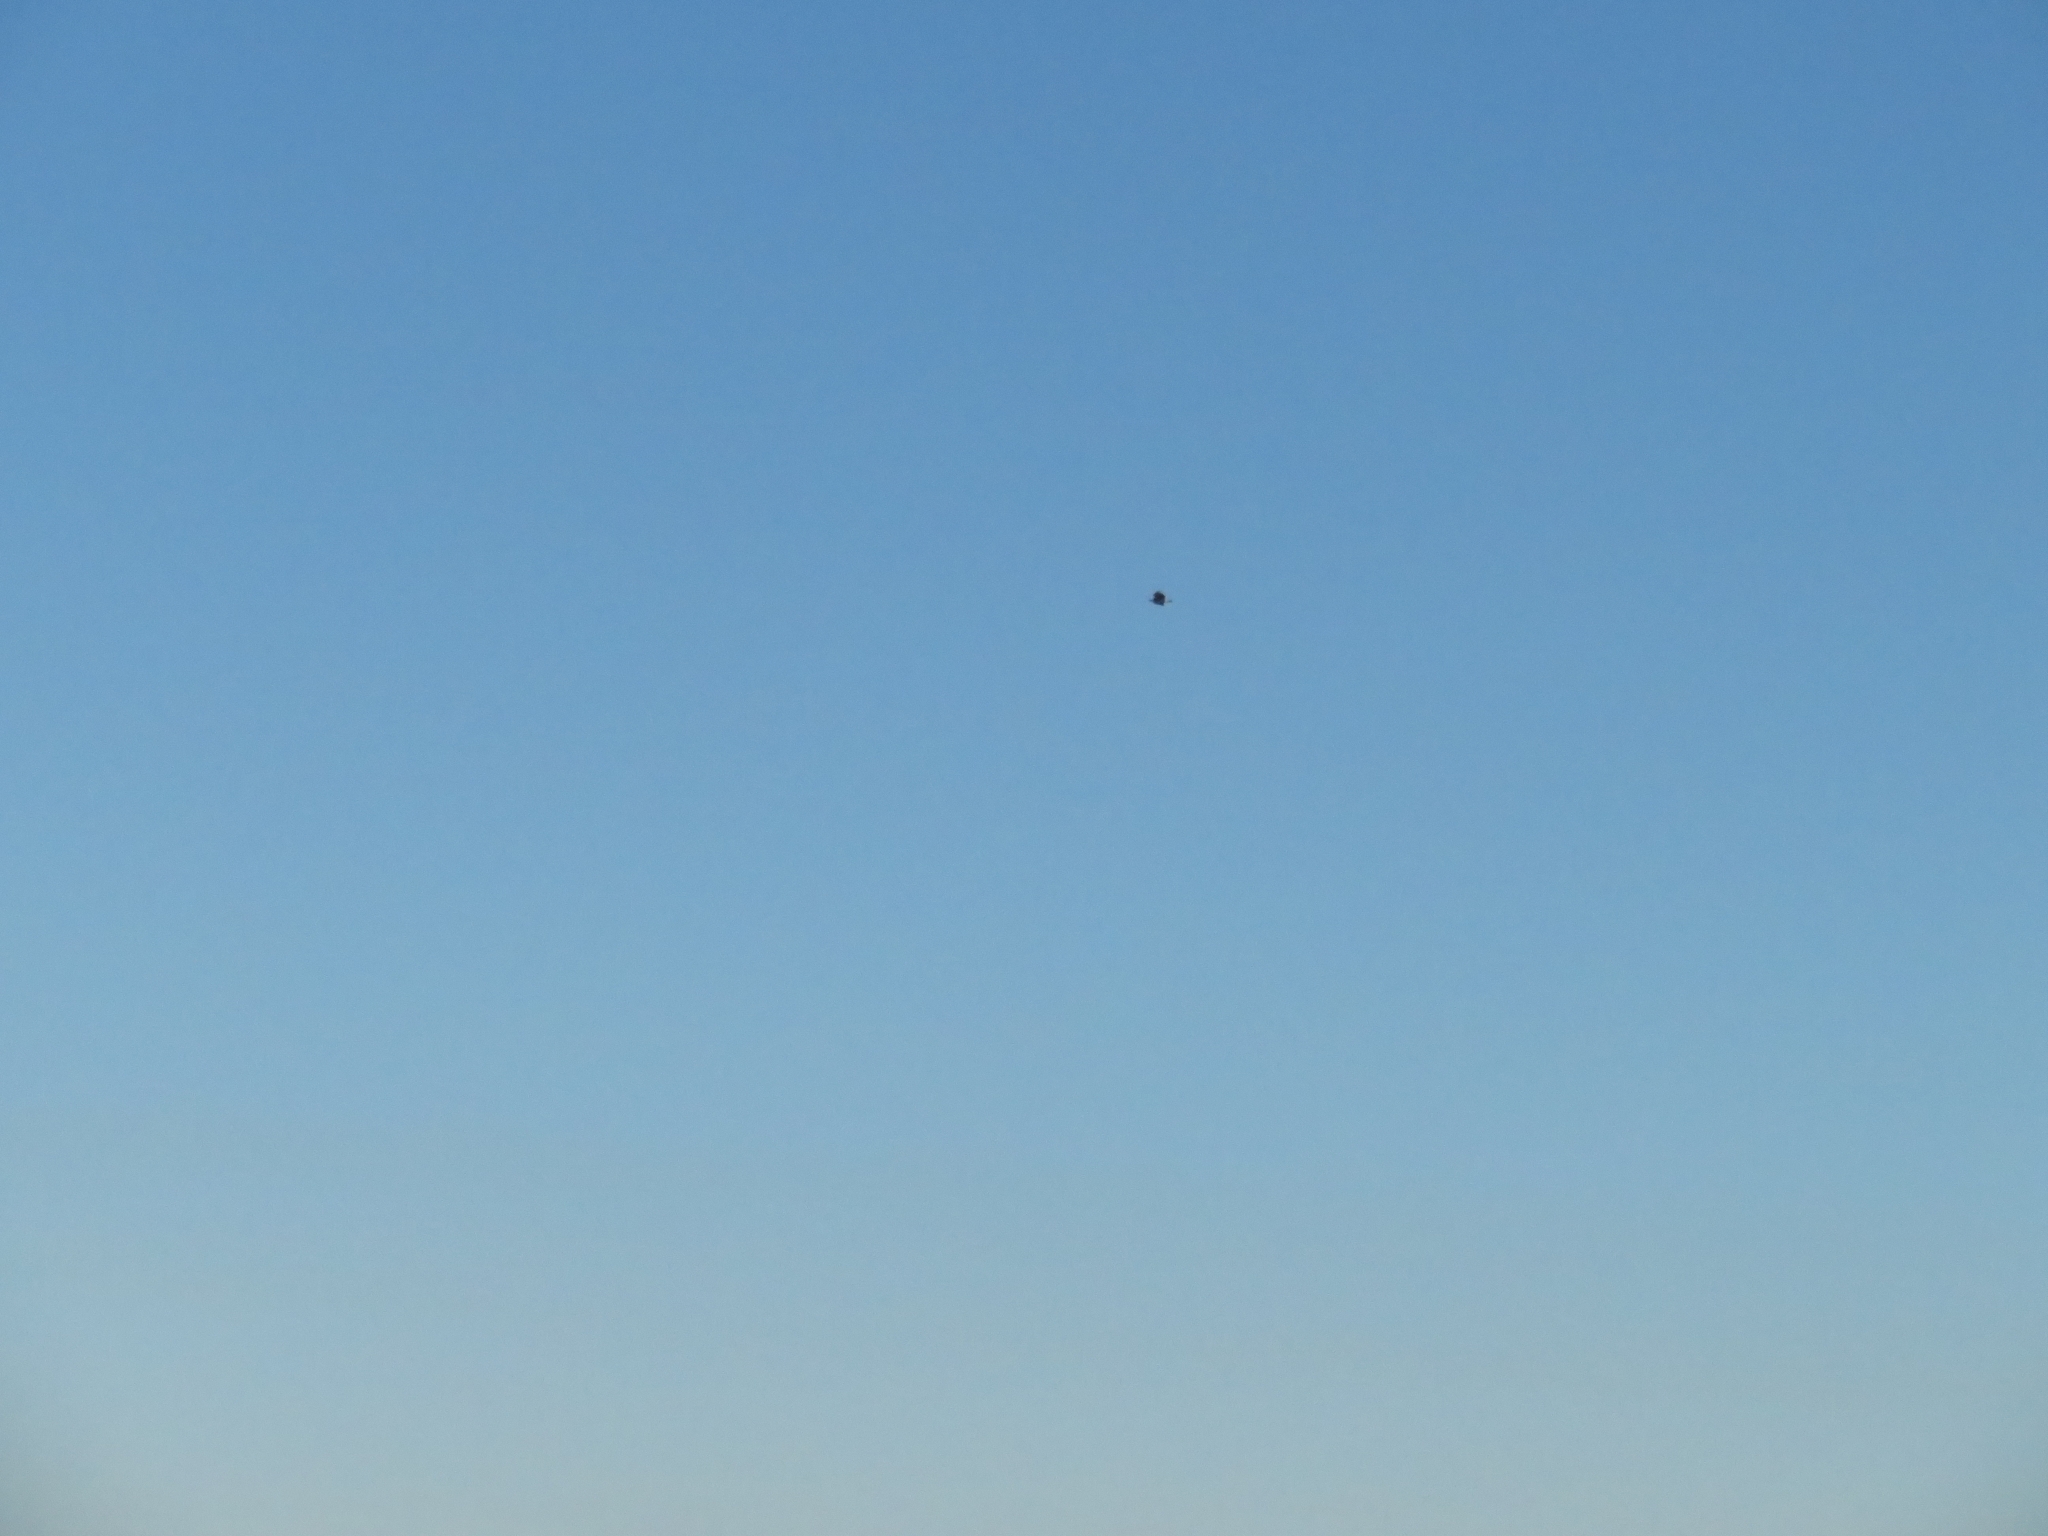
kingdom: Animalia
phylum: Chordata
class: Aves
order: Accipitriformes
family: Accipitridae
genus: Haliaeetus
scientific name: Haliaeetus leucocephalus
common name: Bald eagle
